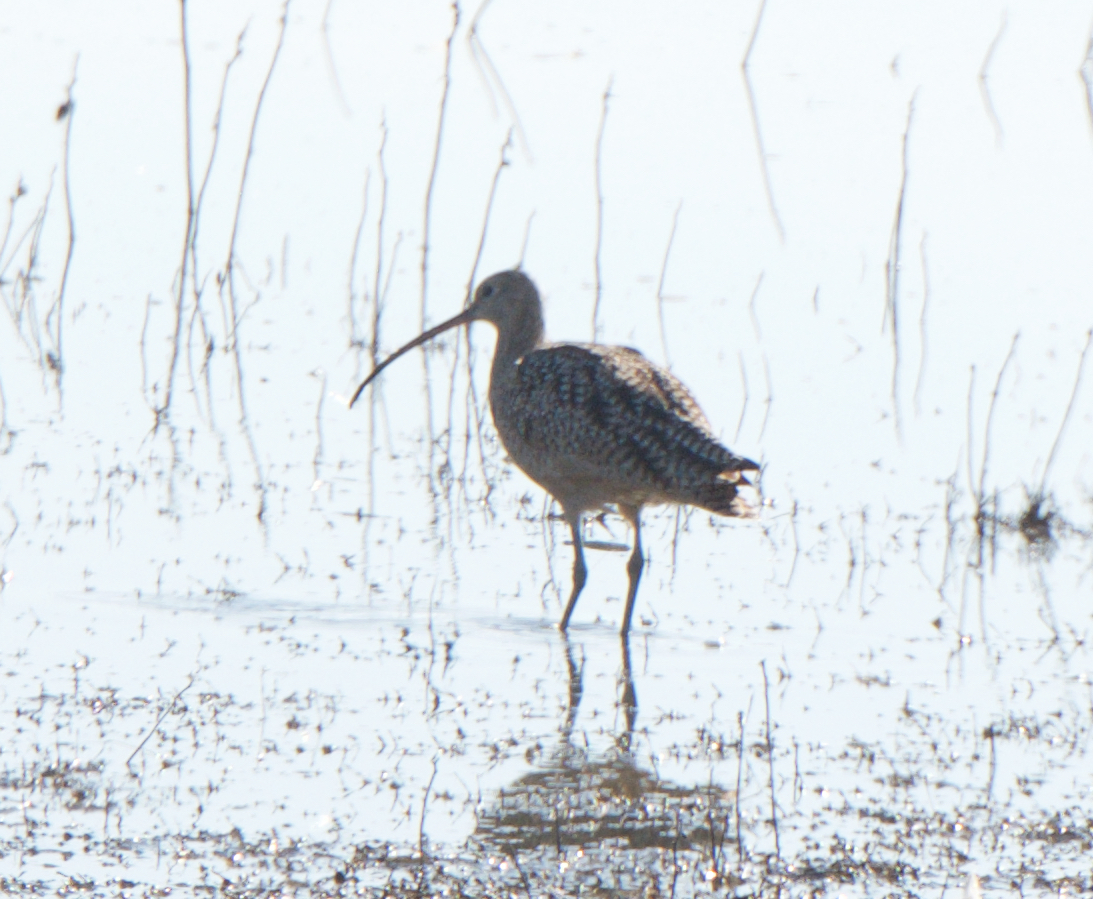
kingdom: Animalia
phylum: Chordata
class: Aves
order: Charadriiformes
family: Scolopacidae
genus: Numenius
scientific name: Numenius americanus
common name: Long-billed curlew
